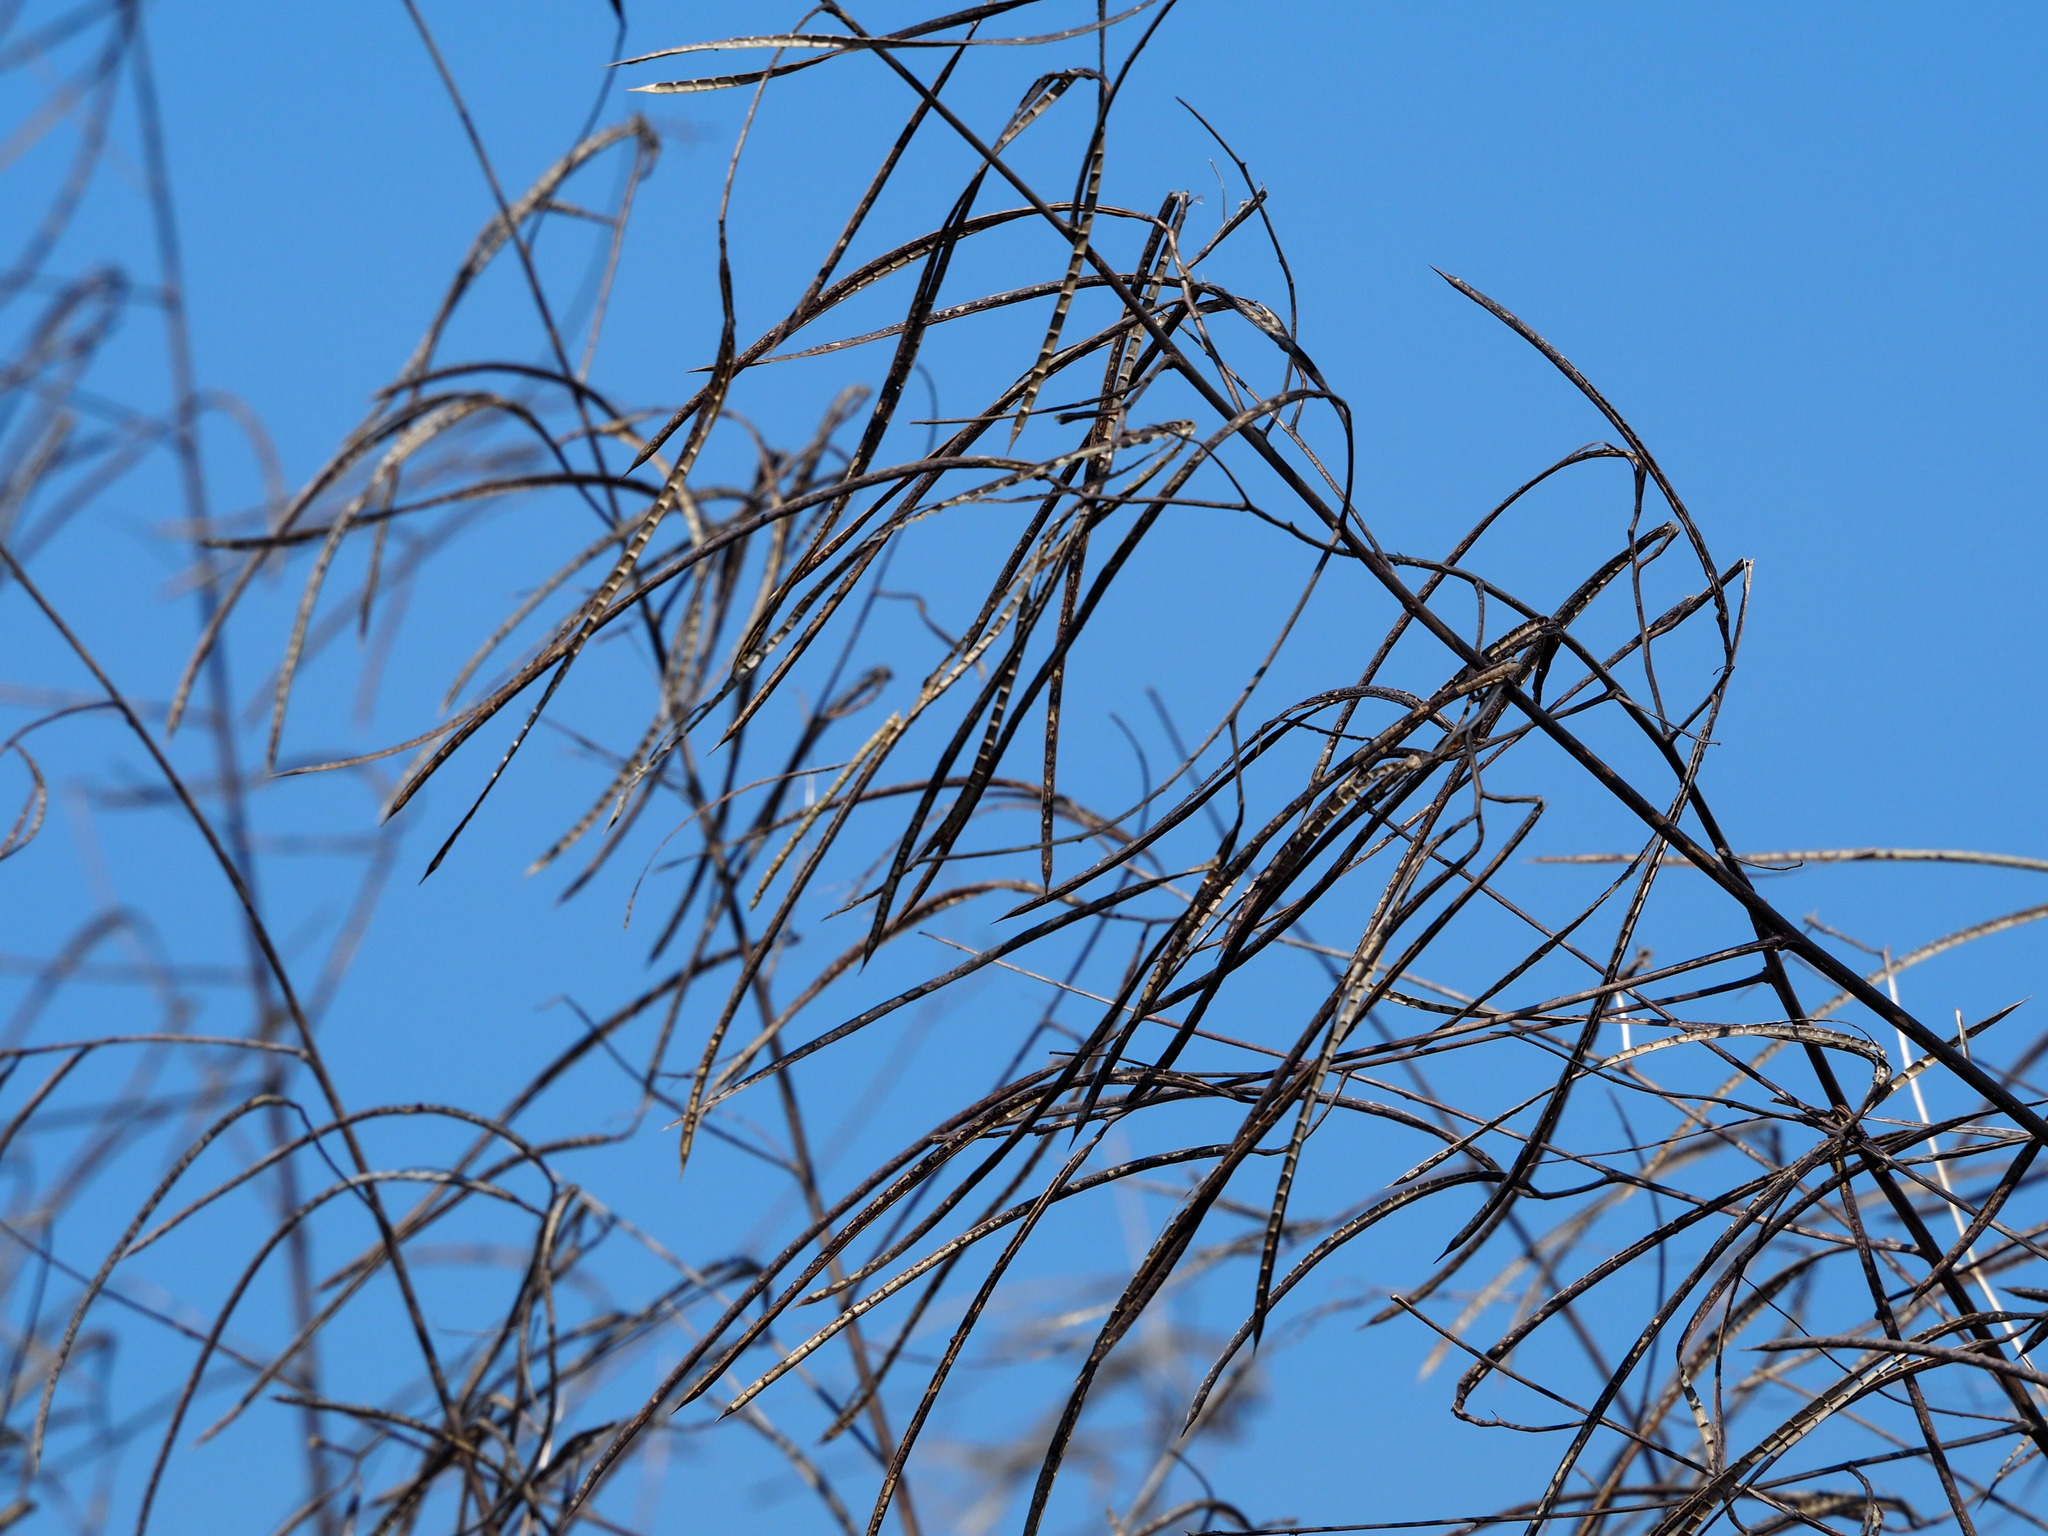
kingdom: Plantae
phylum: Tracheophyta
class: Magnoliopsida
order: Fabales
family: Fabaceae
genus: Sesbania
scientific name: Sesbania cannabina
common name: Canicha
